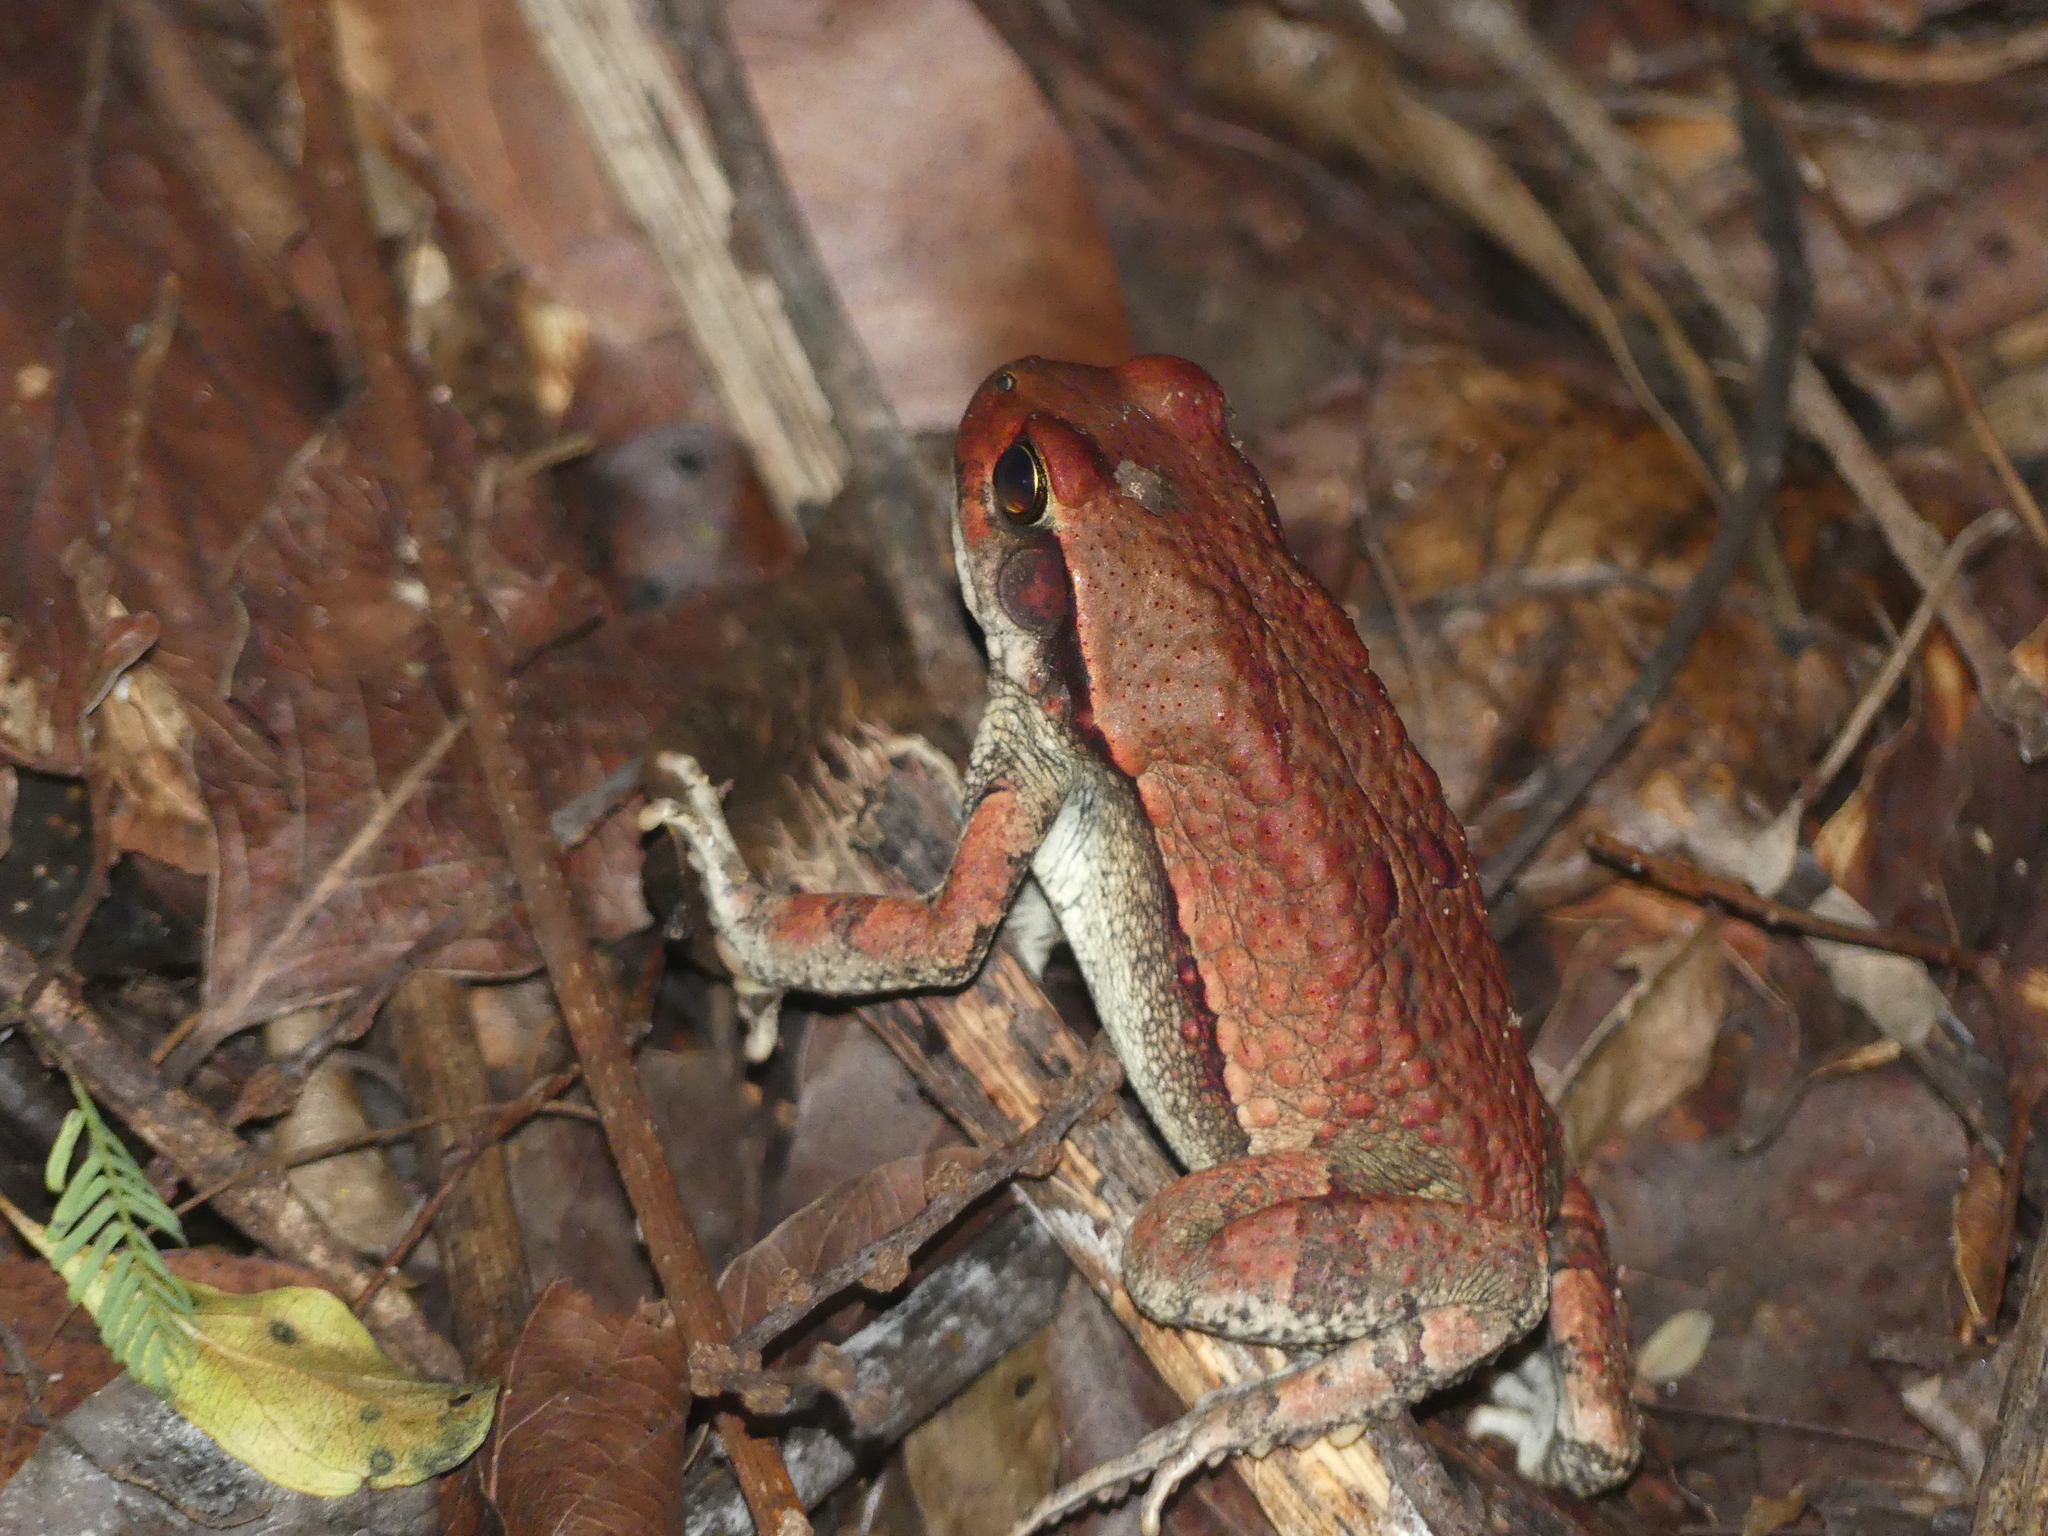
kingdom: Animalia
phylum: Chordata
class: Amphibia
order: Anura
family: Bufonidae
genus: Schismaderma
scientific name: Schismaderma carens
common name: African split-skin toad
